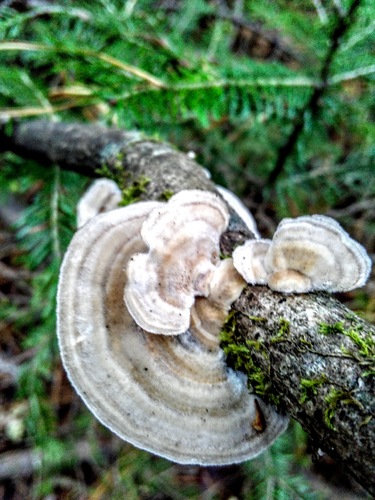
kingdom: Fungi
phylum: Basidiomycota
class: Agaricomycetes
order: Polyporales
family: Polyporaceae
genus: Trametes
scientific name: Trametes hirsuta
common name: Hairy bracket
